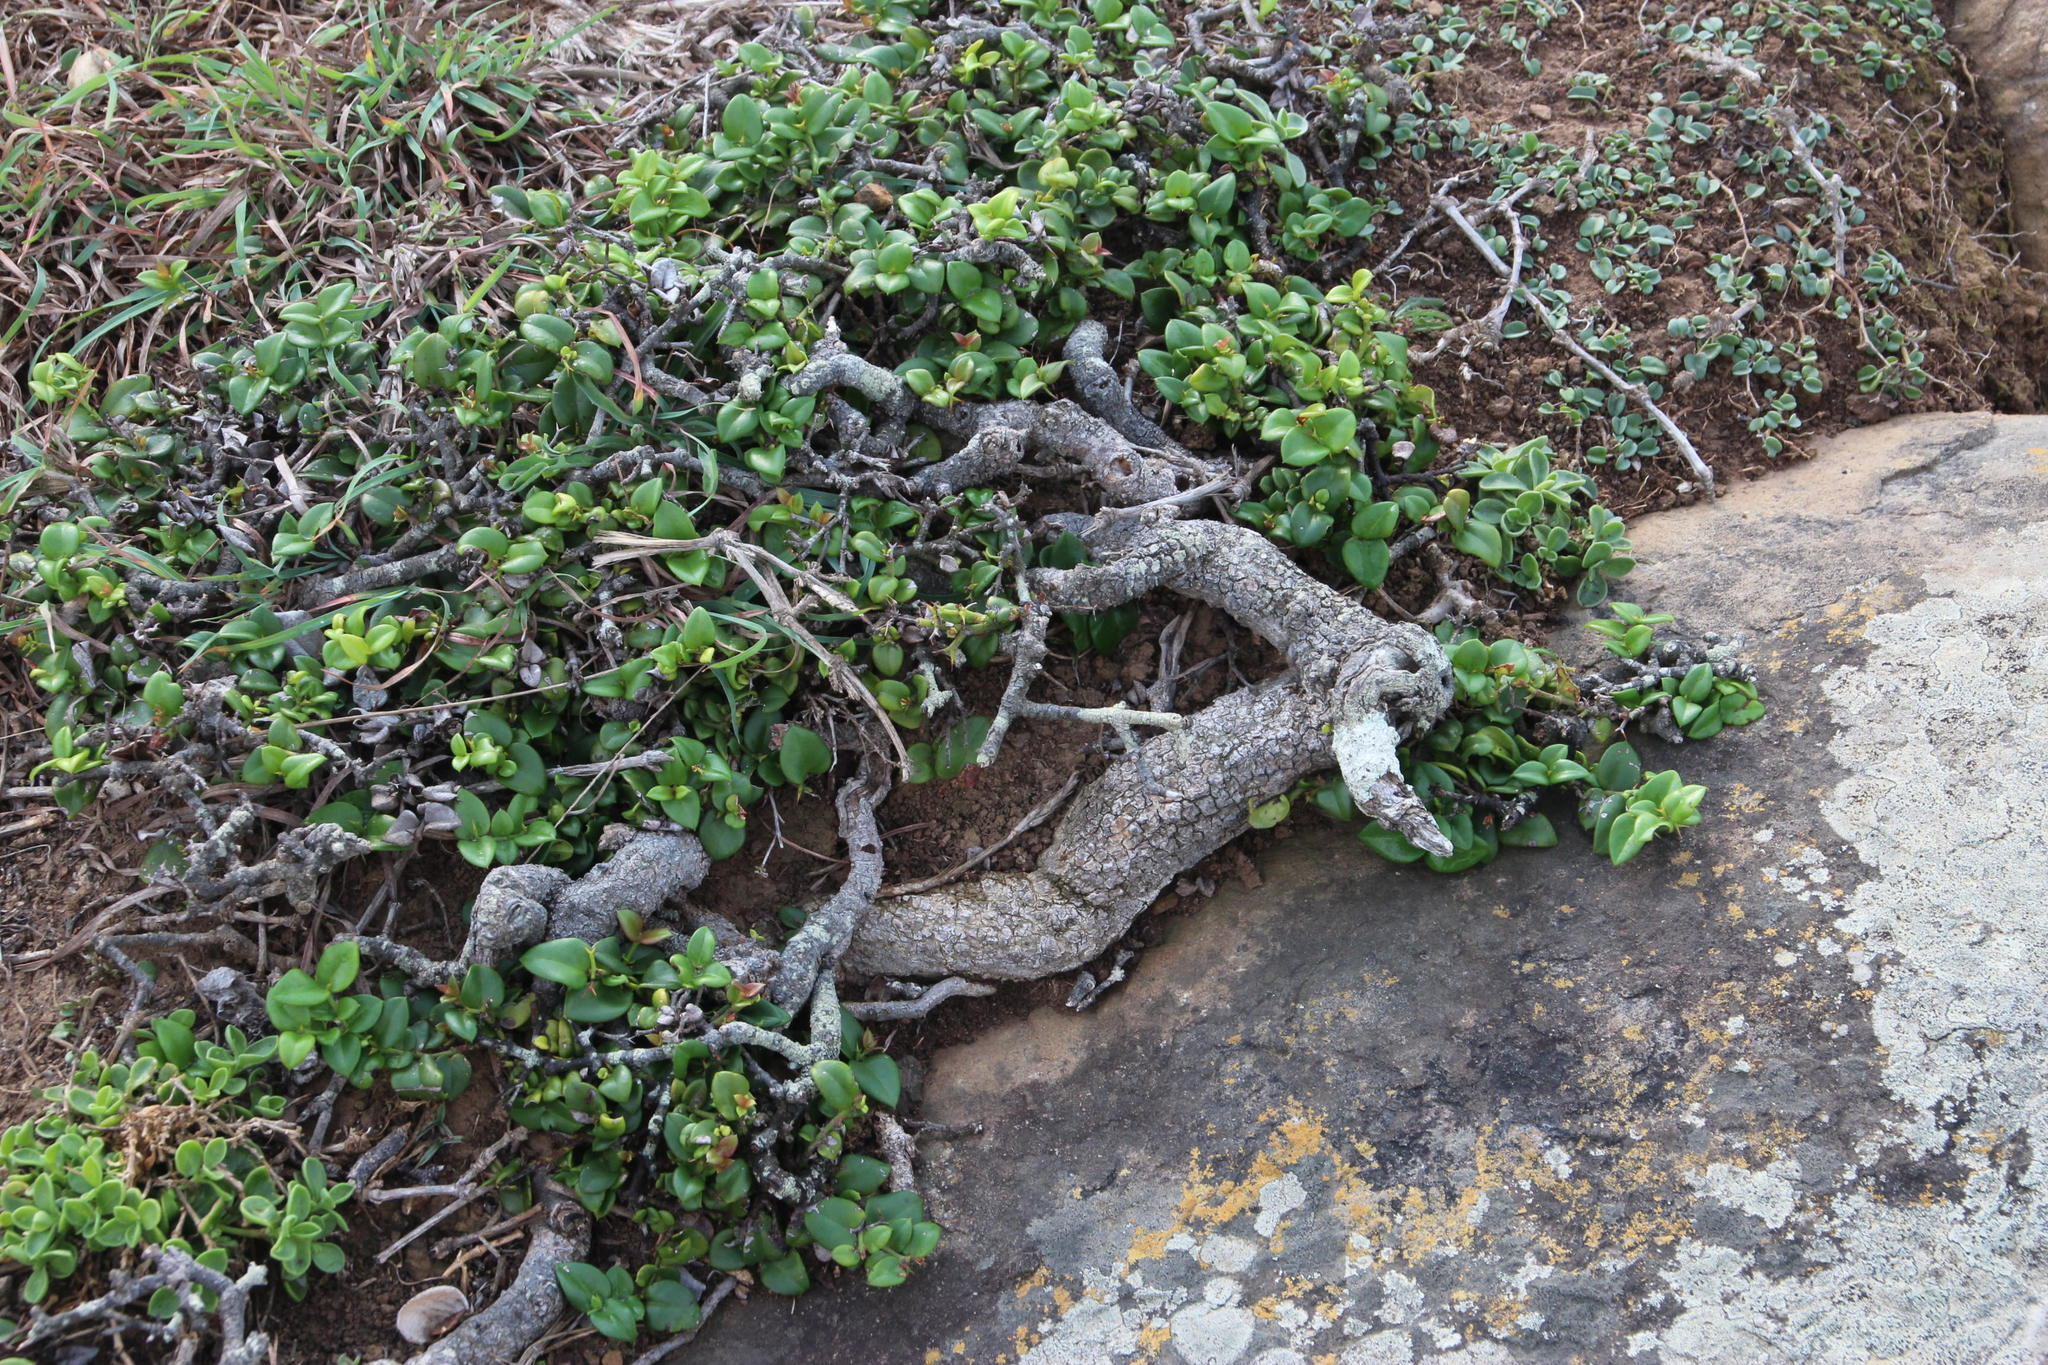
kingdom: Plantae
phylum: Tracheophyta
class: Magnoliopsida
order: Gentianales
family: Apocynaceae
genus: Carissa
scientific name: Carissa bispinosa
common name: Forest num-num
